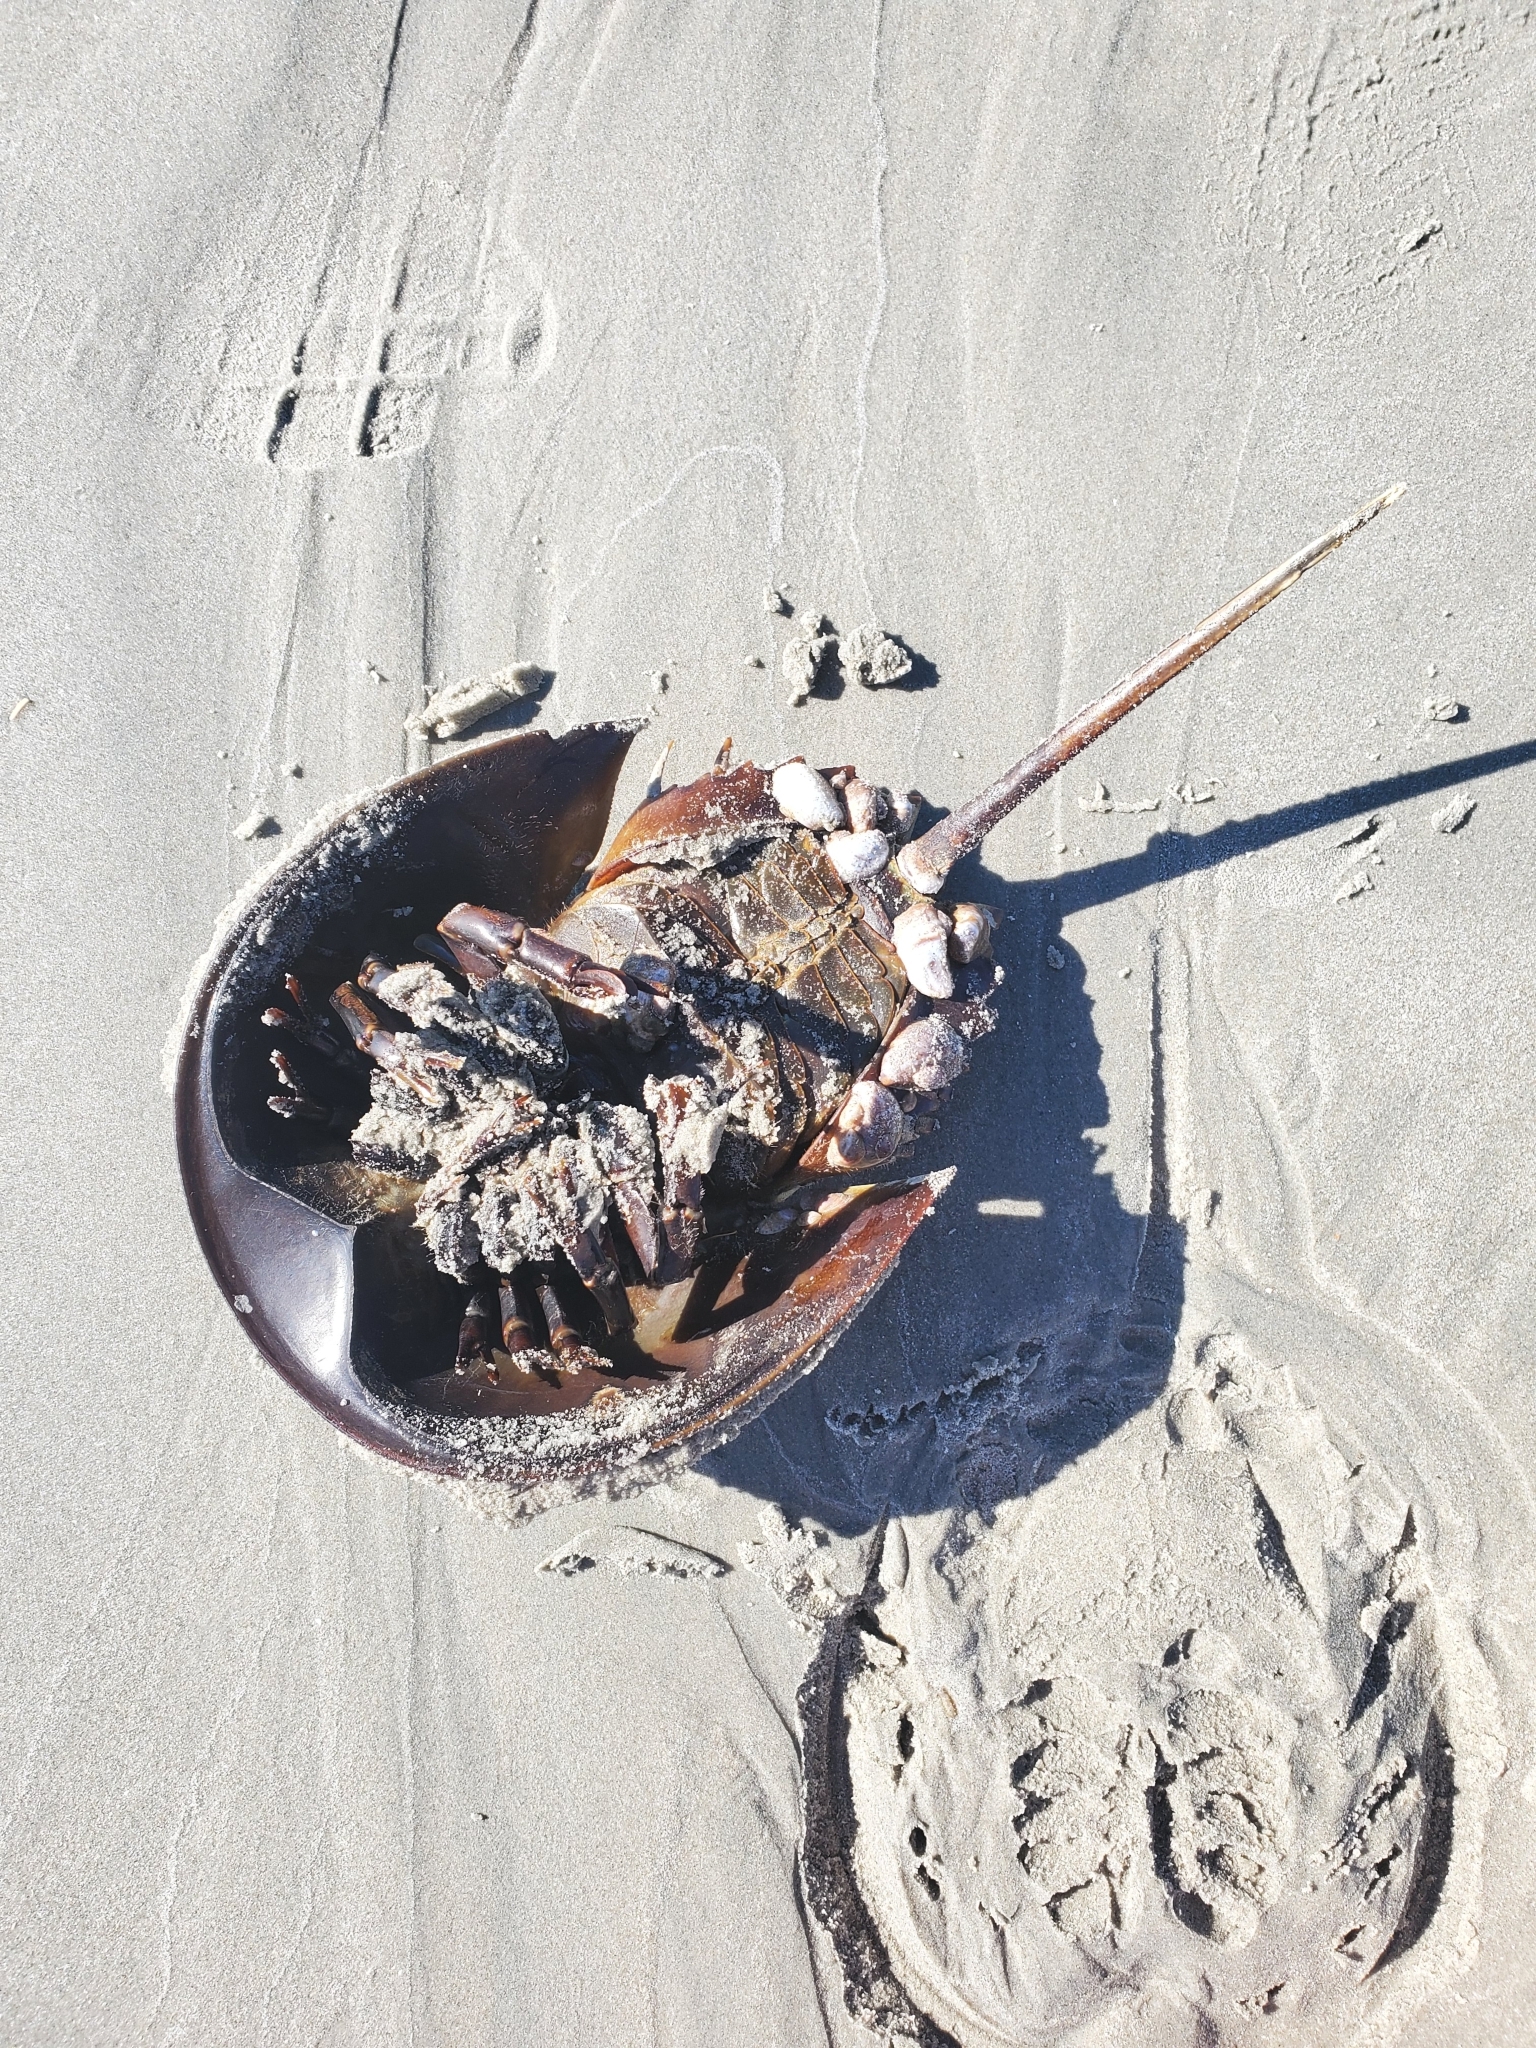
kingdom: Animalia
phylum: Arthropoda
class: Merostomata
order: Xiphosurida
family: Limulidae
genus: Limulus
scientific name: Limulus polyphemus
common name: Horseshoe crab
